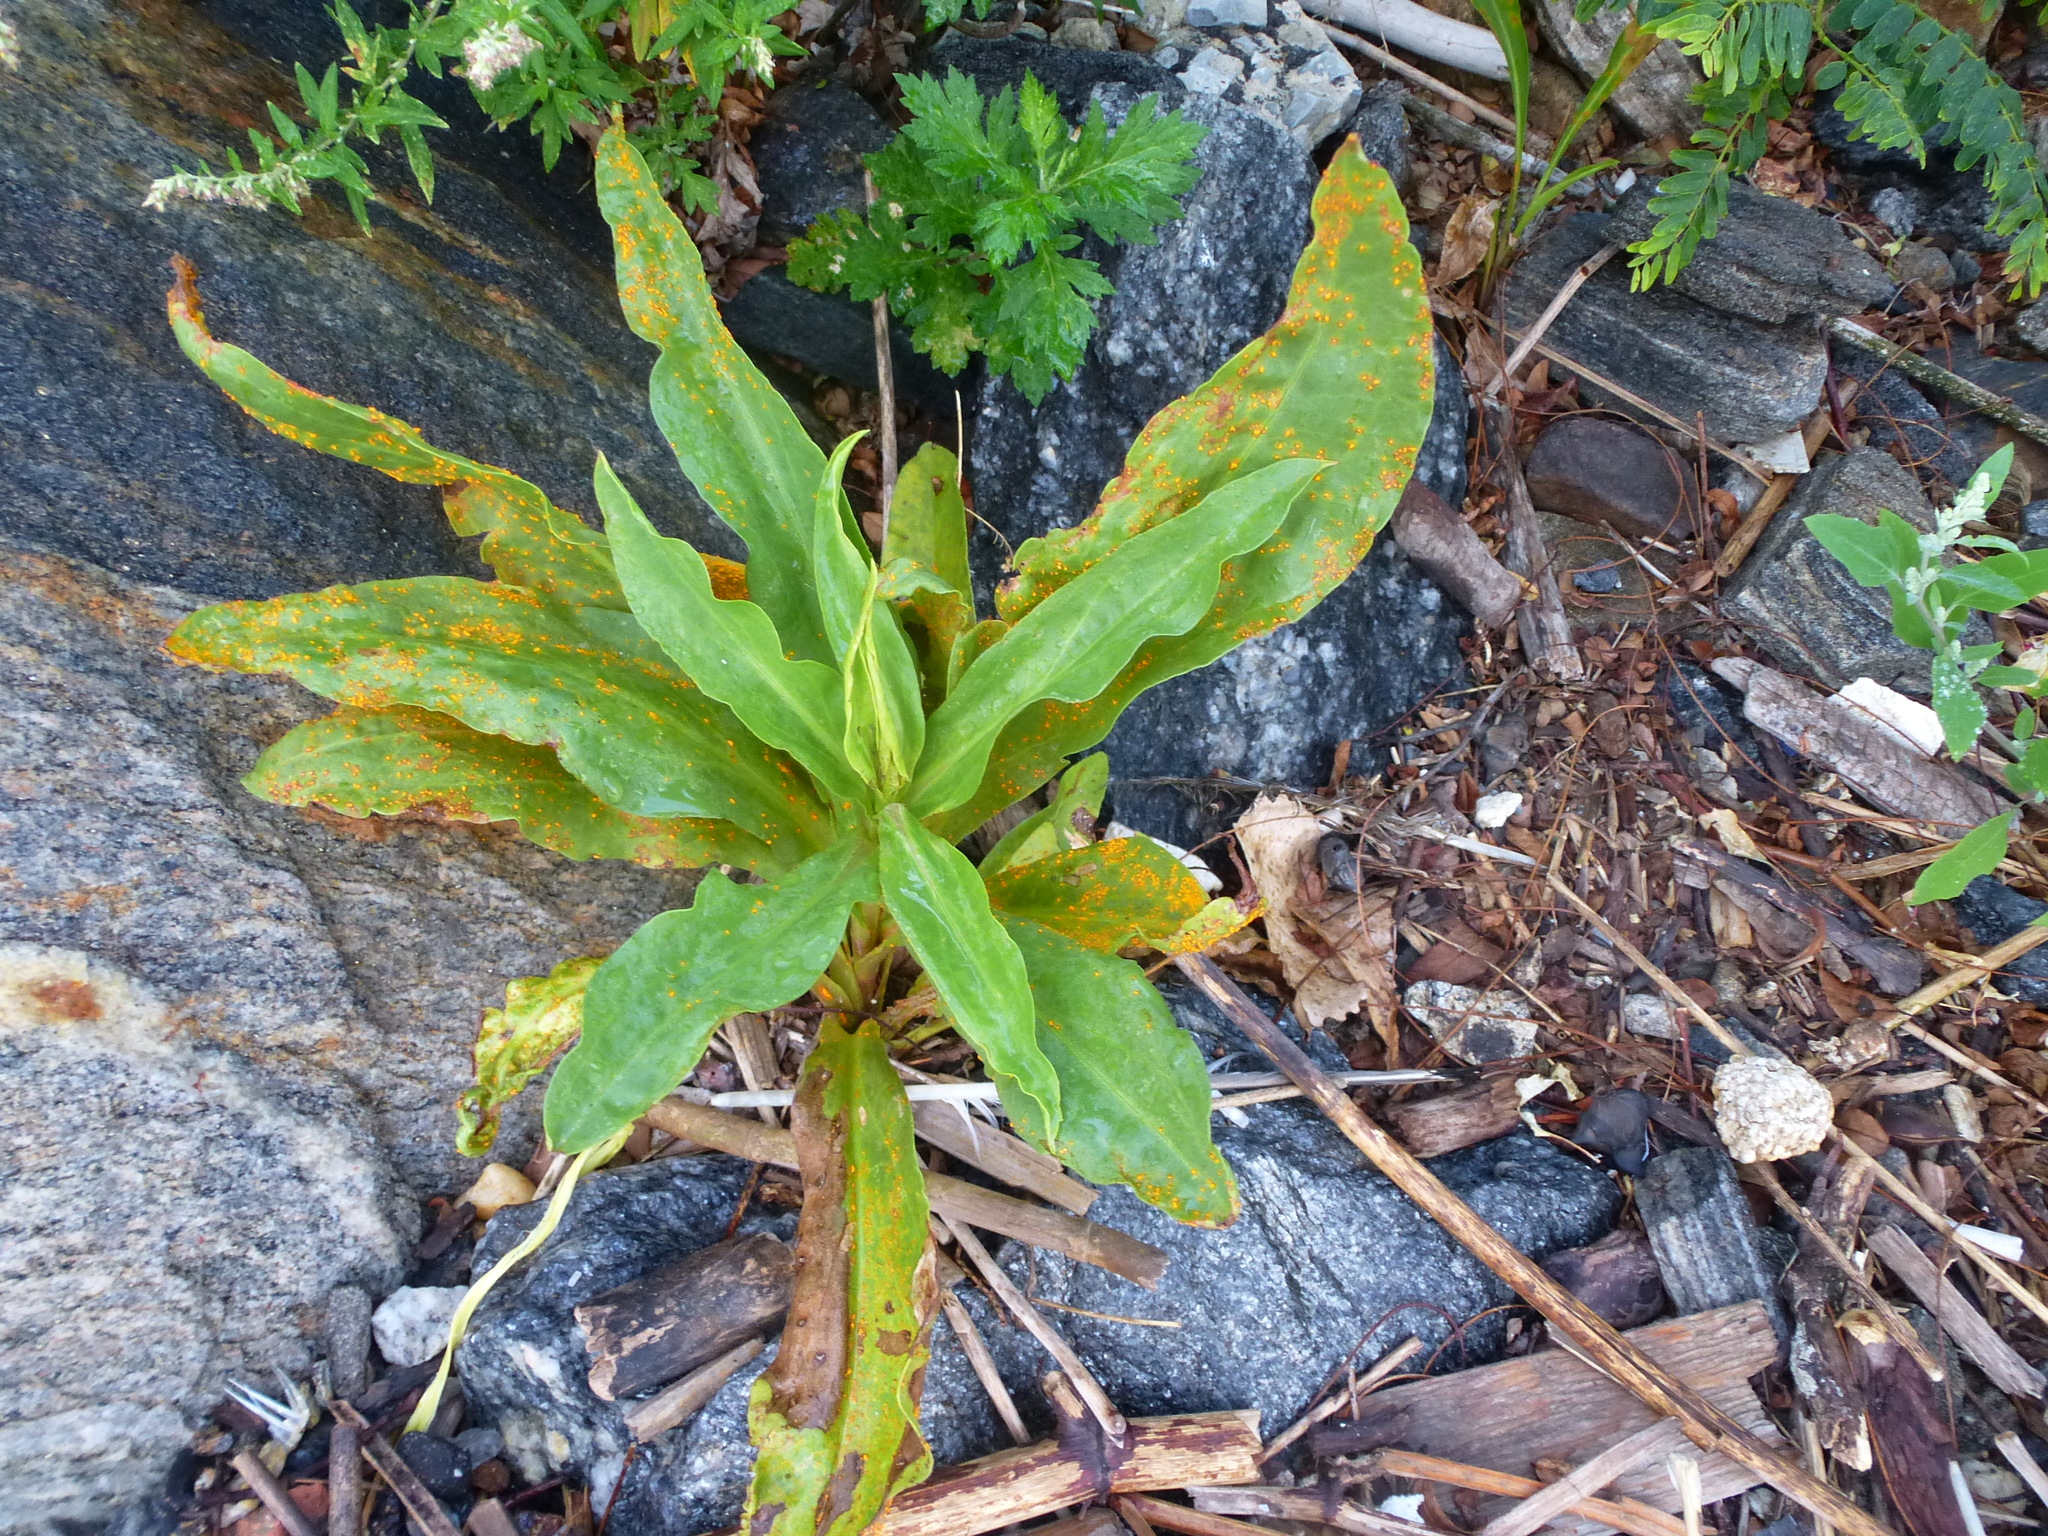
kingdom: Plantae
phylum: Tracheophyta
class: Magnoliopsida
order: Asterales
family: Asteraceae
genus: Solidago
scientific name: Solidago sempervirens
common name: Salt-marsh goldenrod
